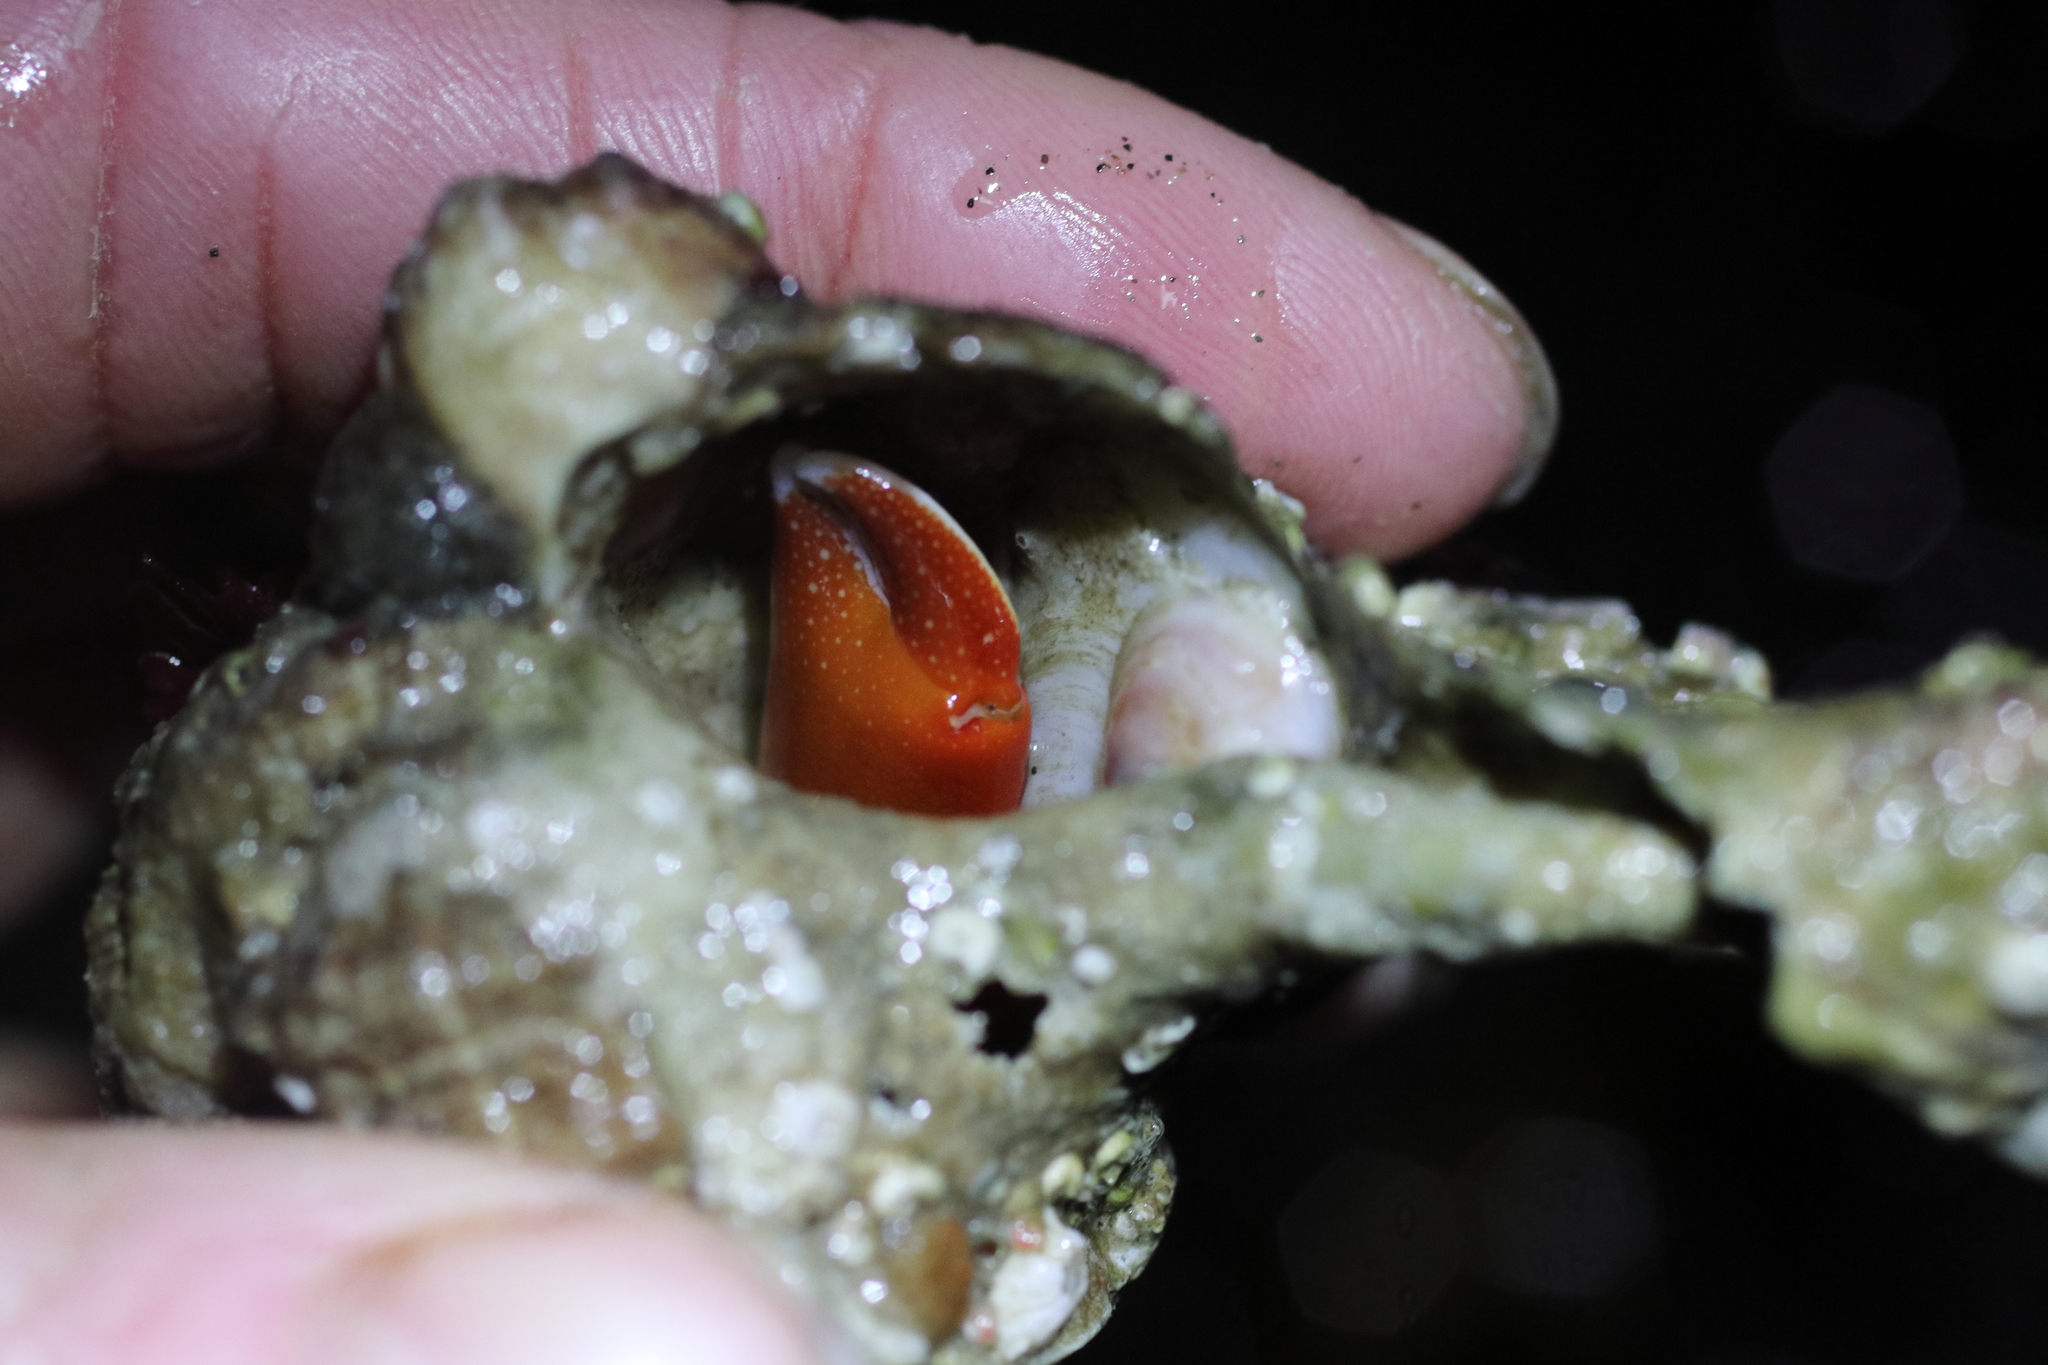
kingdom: Animalia
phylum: Arthropoda
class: Malacostraca
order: Decapoda
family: Paguridae
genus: Elassochirus
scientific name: Elassochirus gilli
